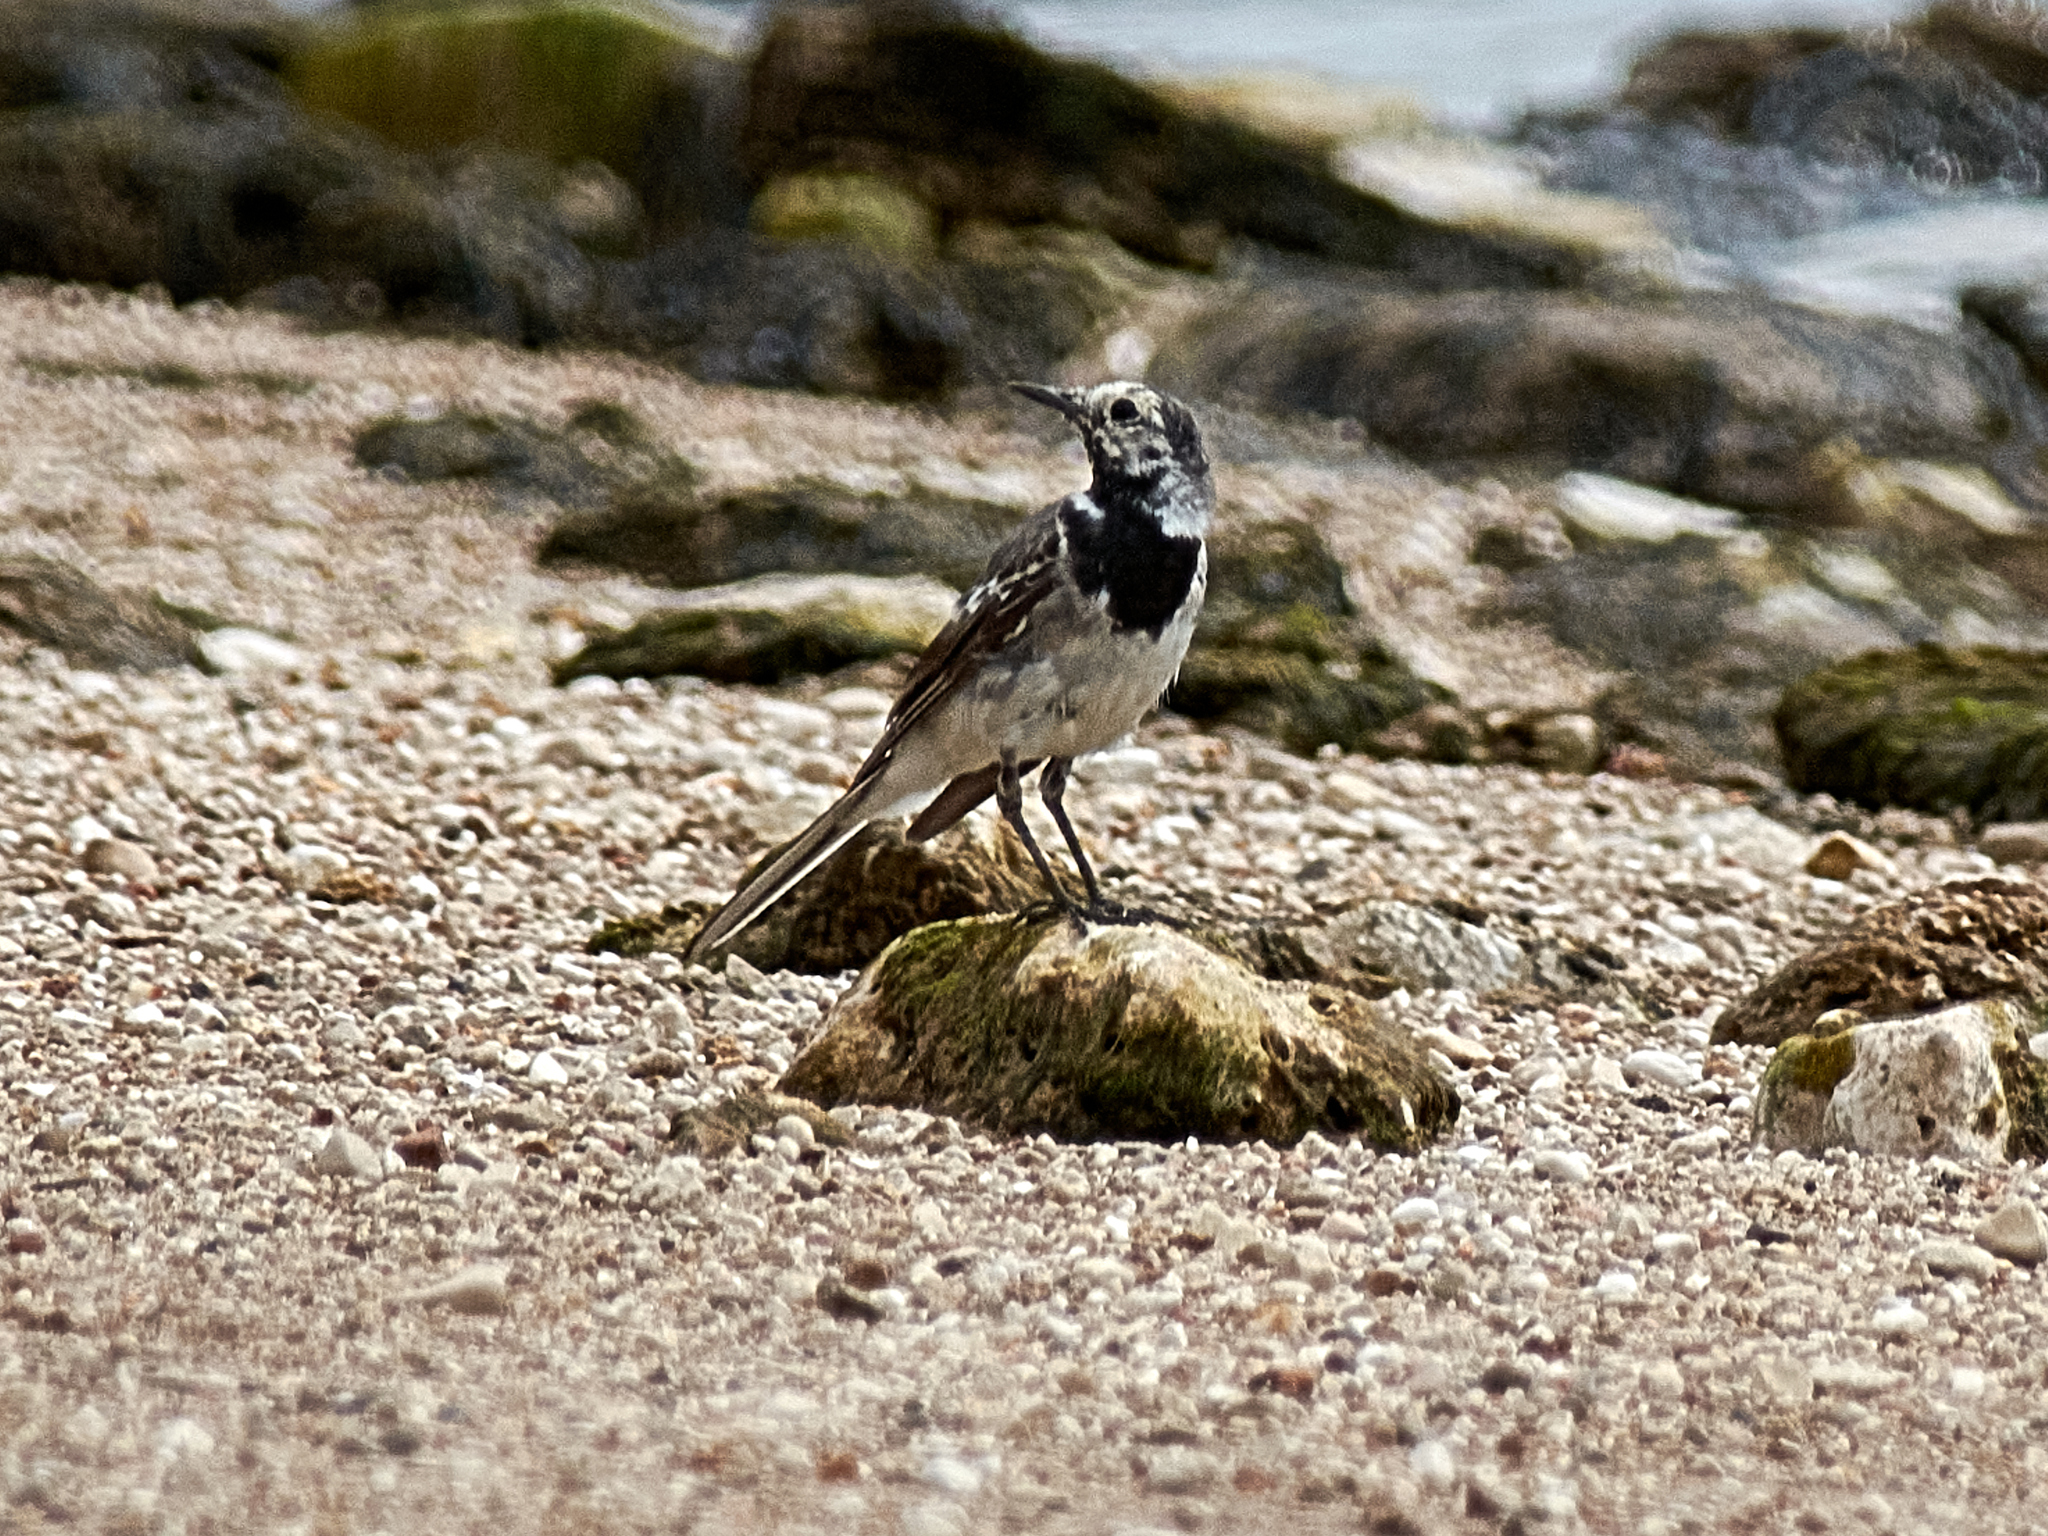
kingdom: Animalia
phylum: Chordata
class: Aves
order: Passeriformes
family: Motacillidae
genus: Motacilla
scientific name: Motacilla alba
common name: White wagtail
